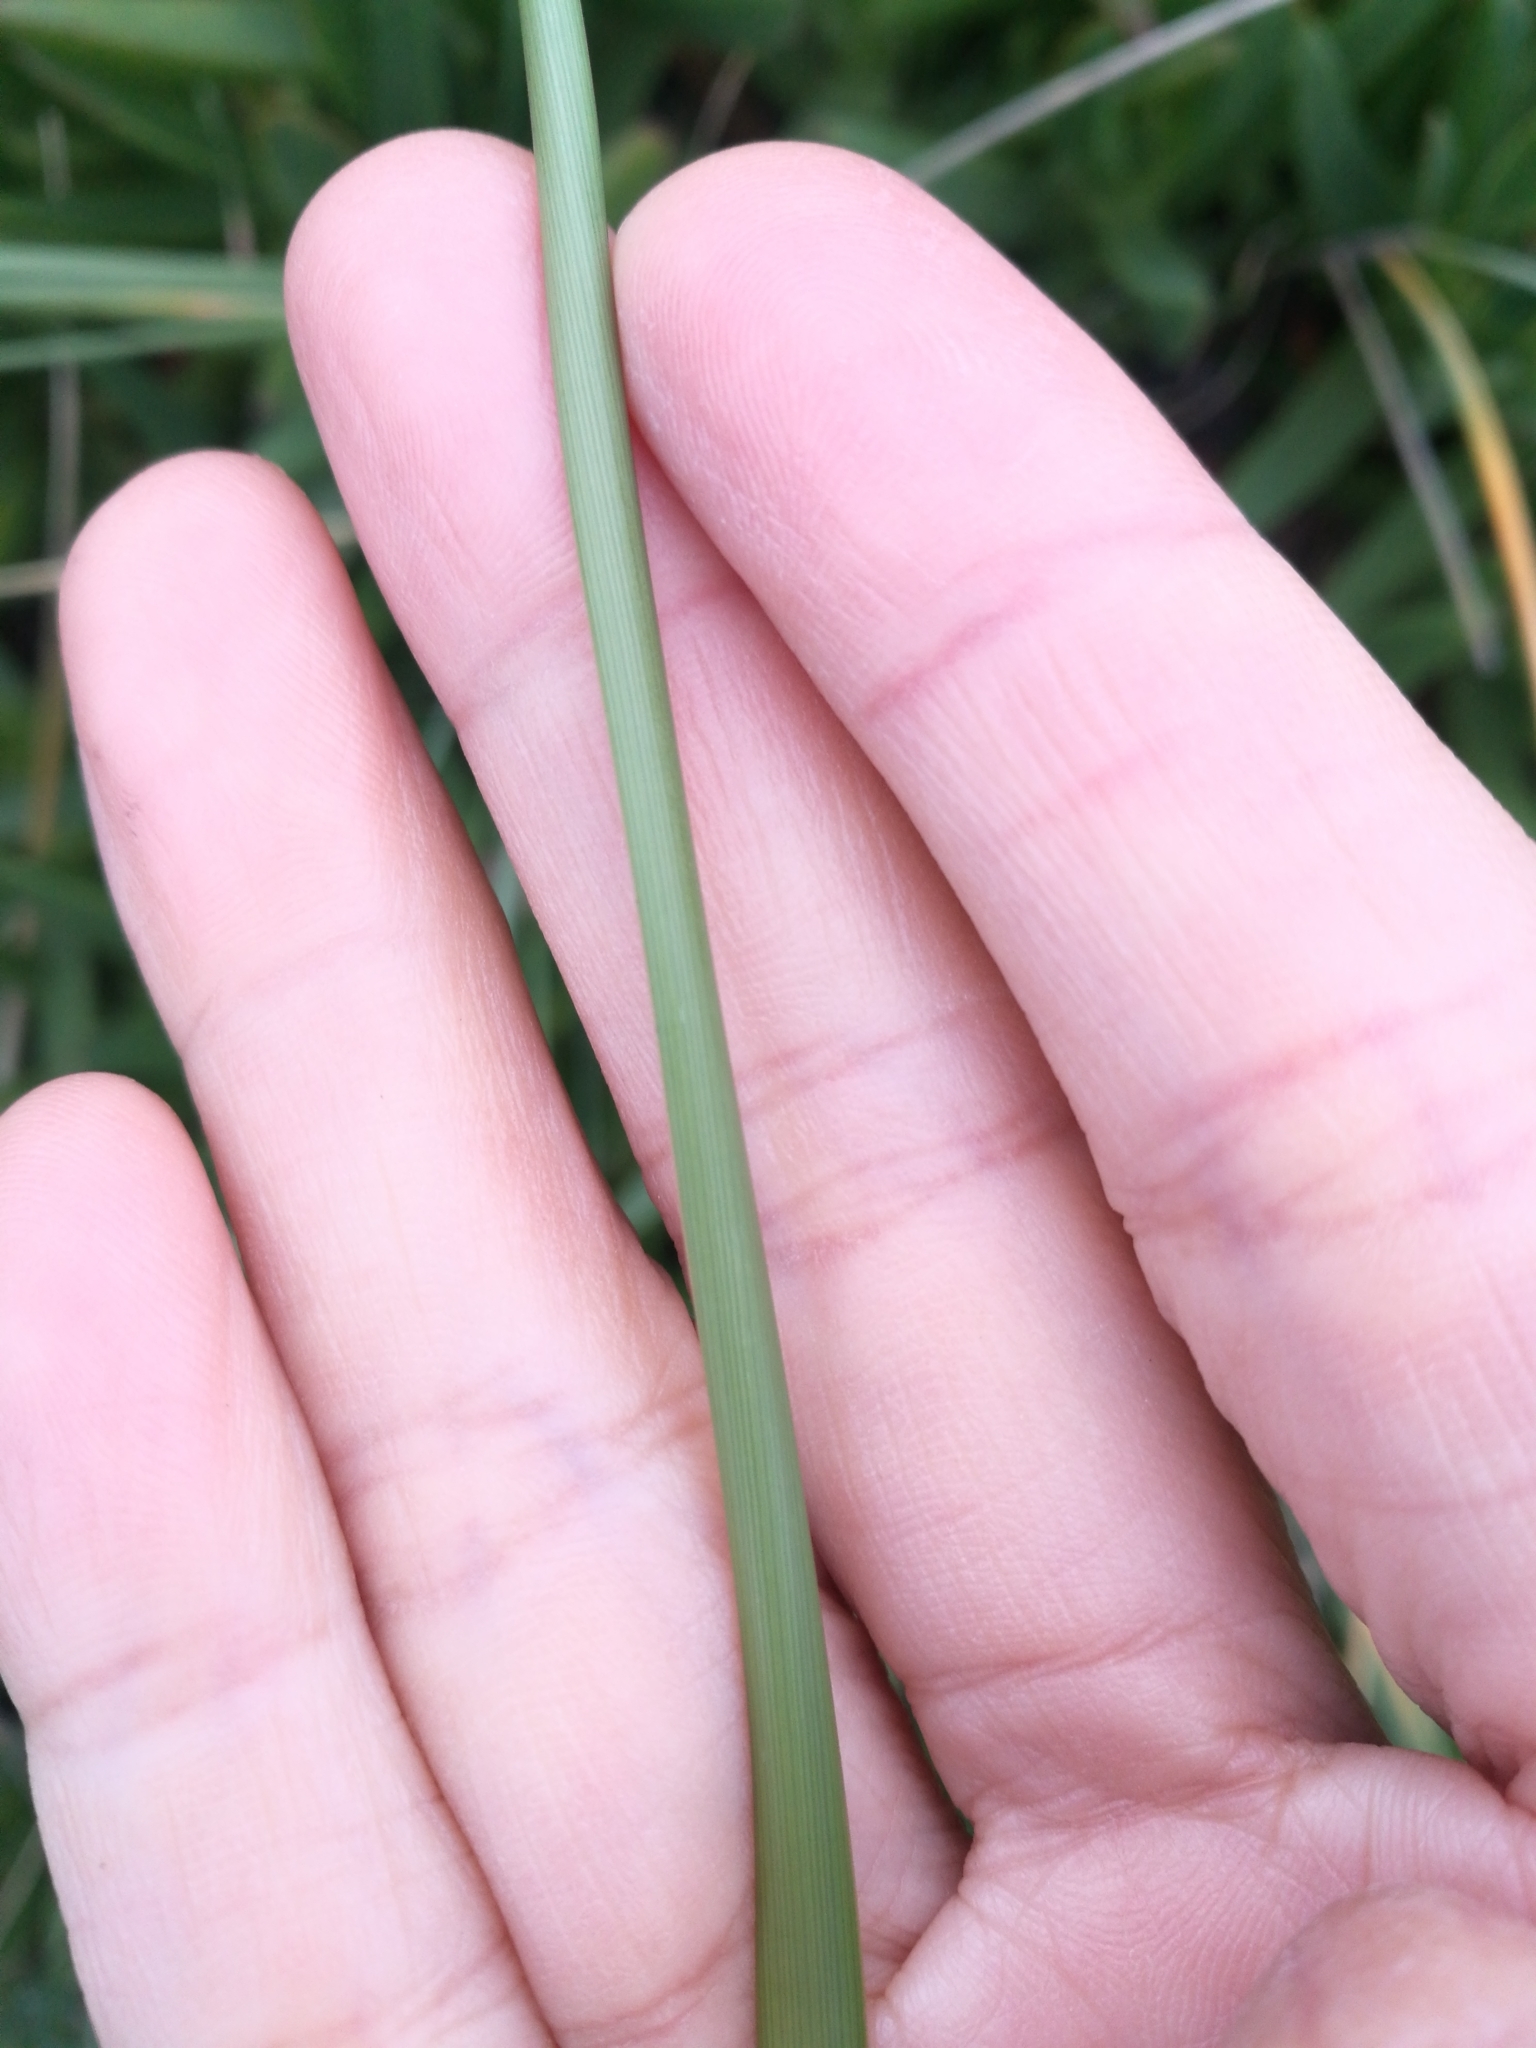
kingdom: Plantae
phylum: Tracheophyta
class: Liliopsida
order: Poales
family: Poaceae
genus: Calamagrostis
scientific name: Calamagrostis arenaria
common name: European beachgrass
